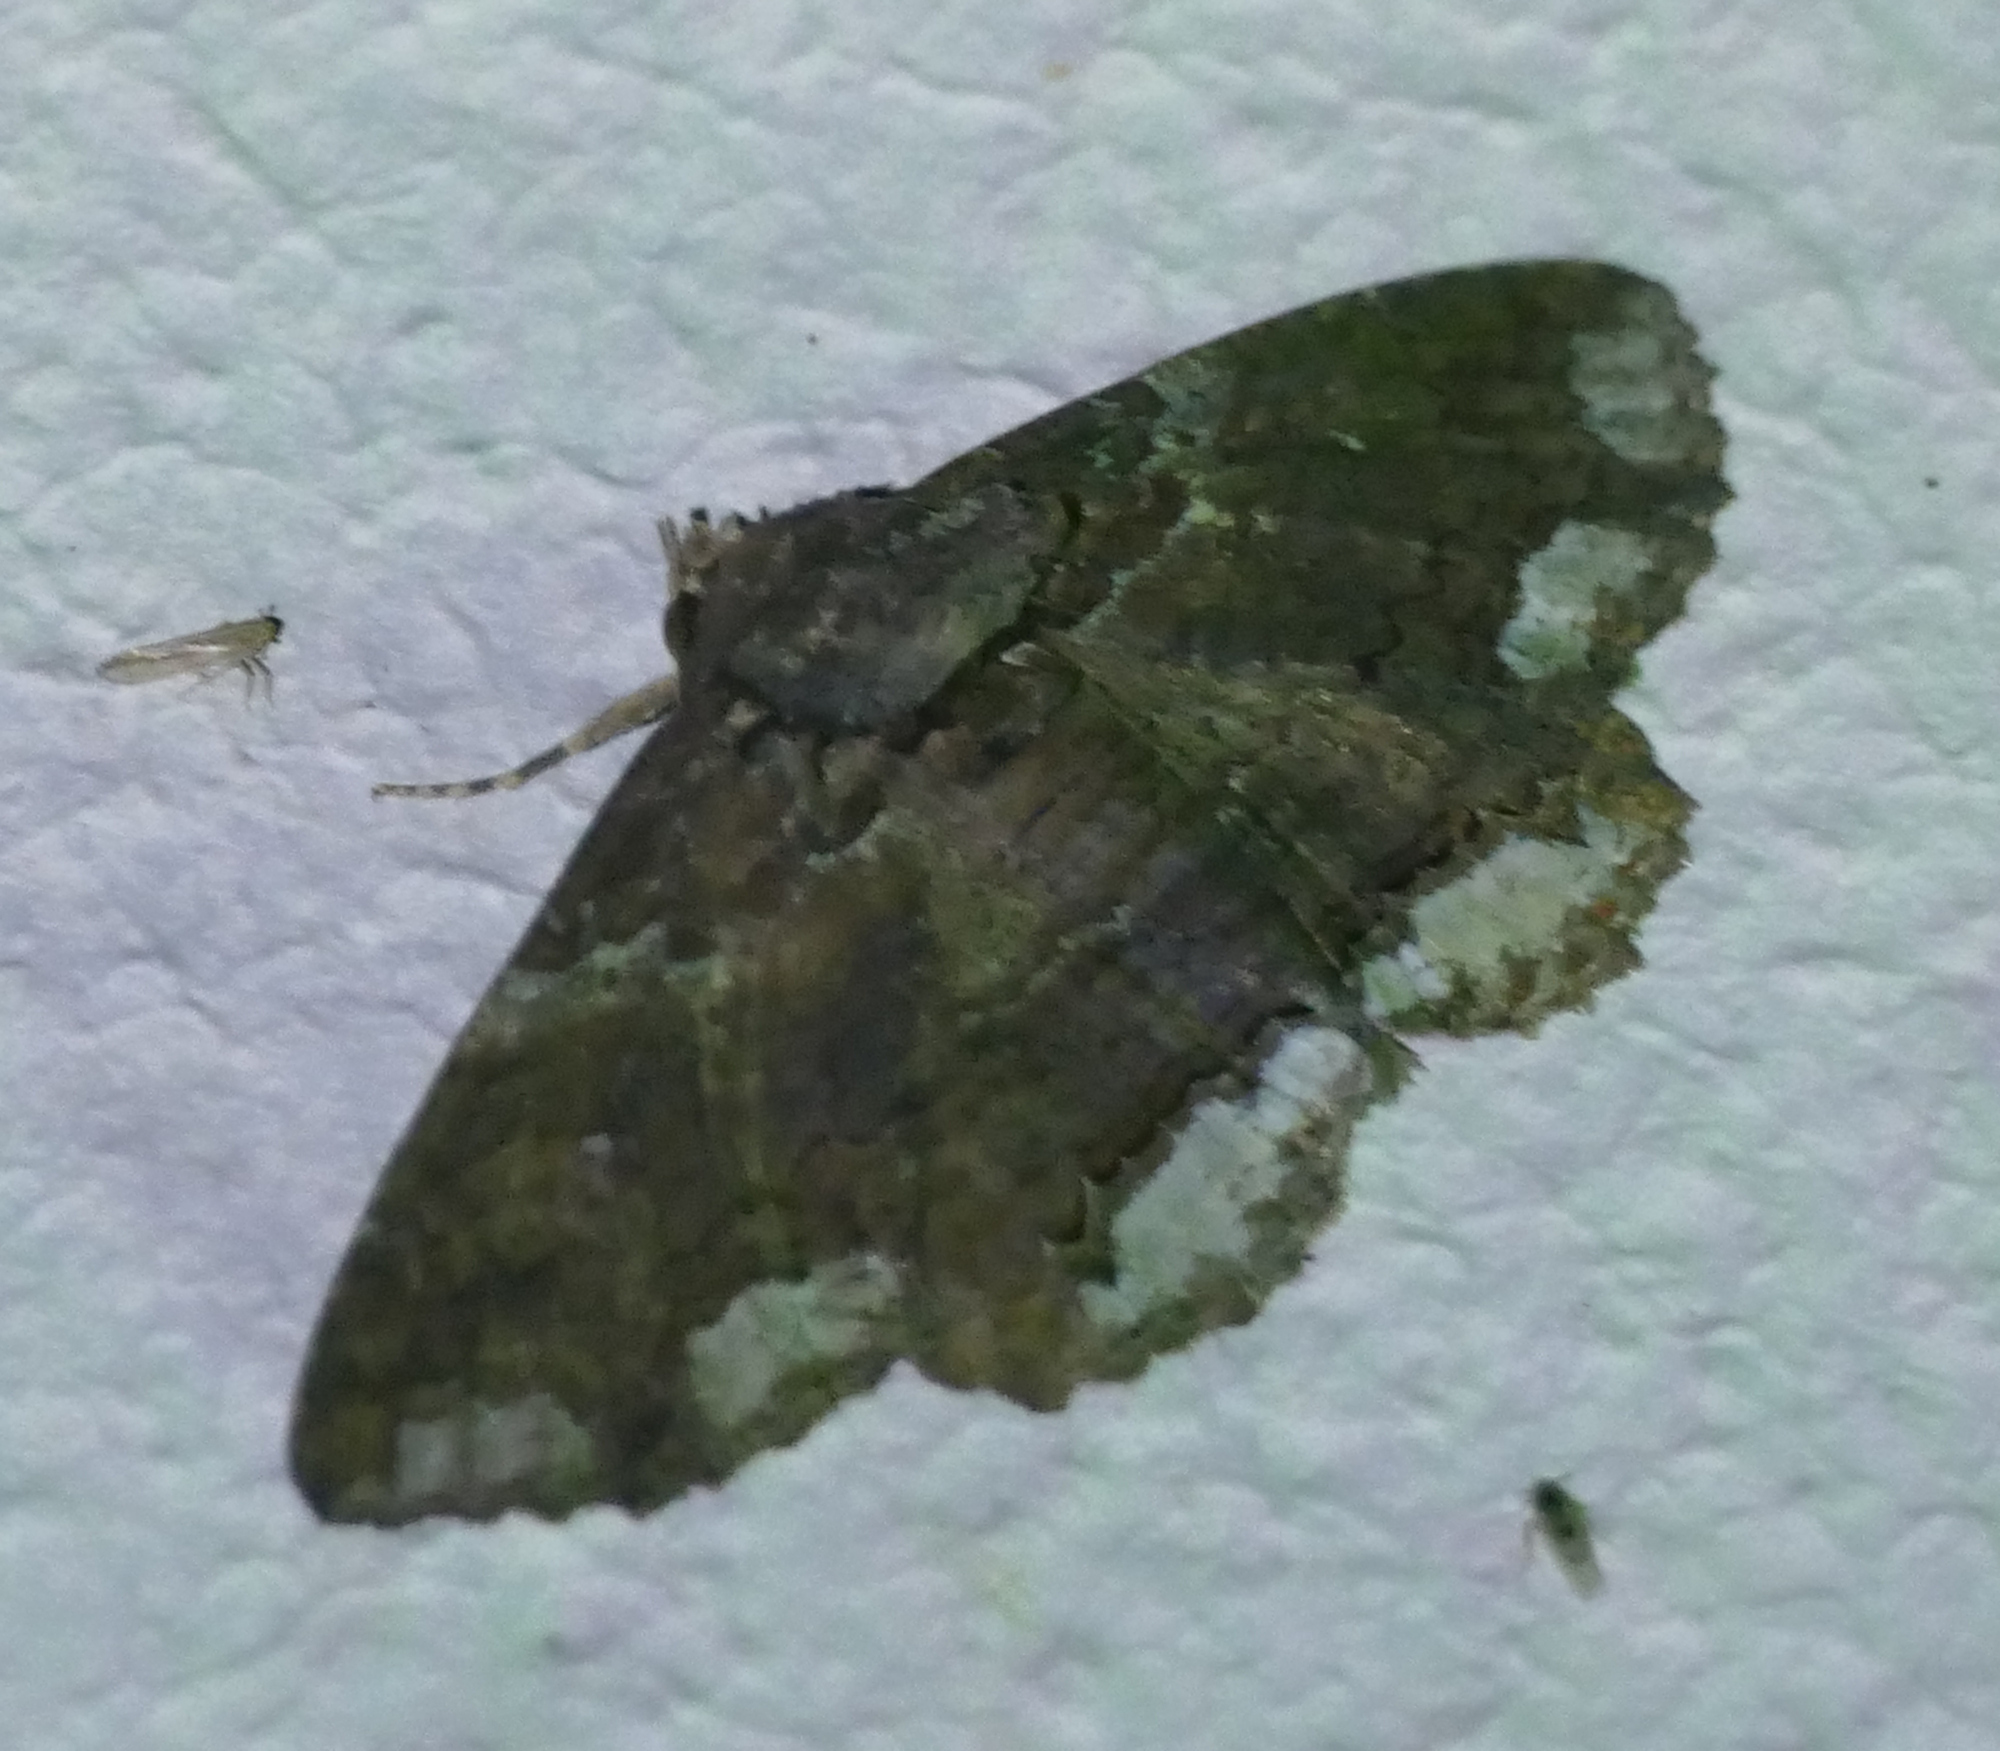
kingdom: Animalia
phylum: Arthropoda
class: Insecta
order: Lepidoptera
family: Erebidae
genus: Zale
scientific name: Zale lunata
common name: Lunate zale moth
